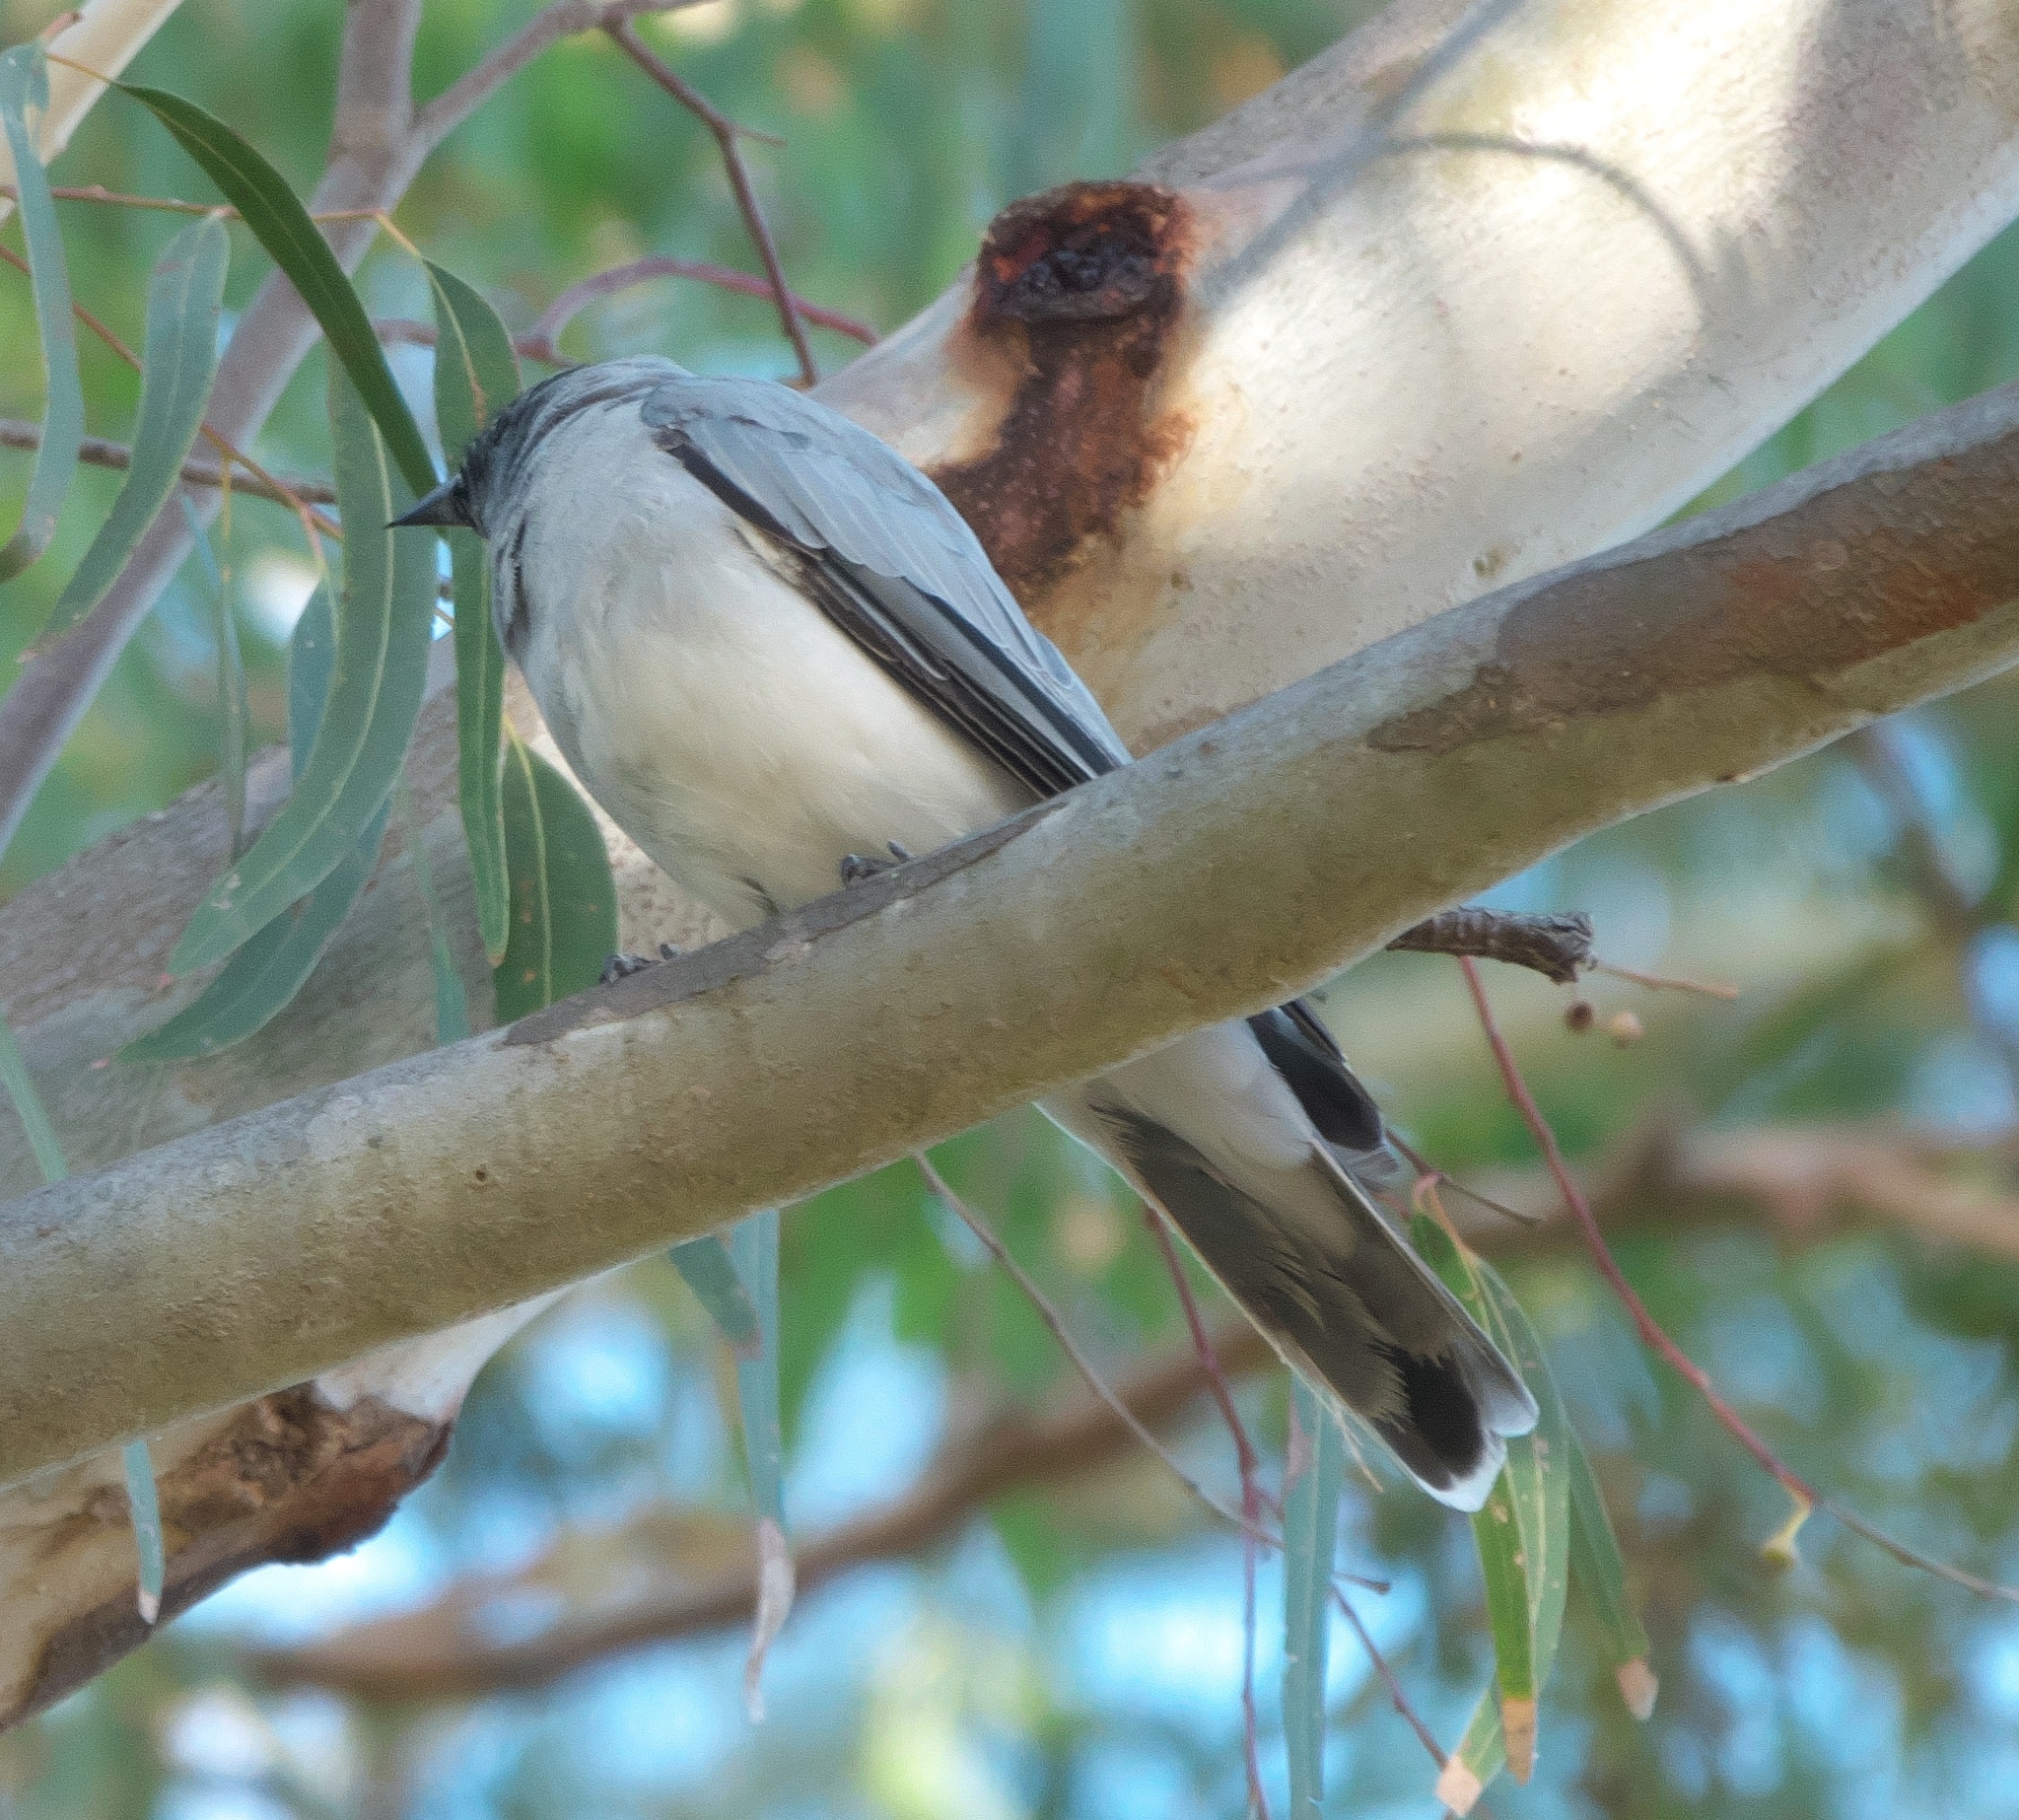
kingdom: Animalia
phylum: Chordata
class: Aves
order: Passeriformes
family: Campephagidae
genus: Coracina
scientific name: Coracina novaehollandiae
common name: Black-faced cuckooshrike
